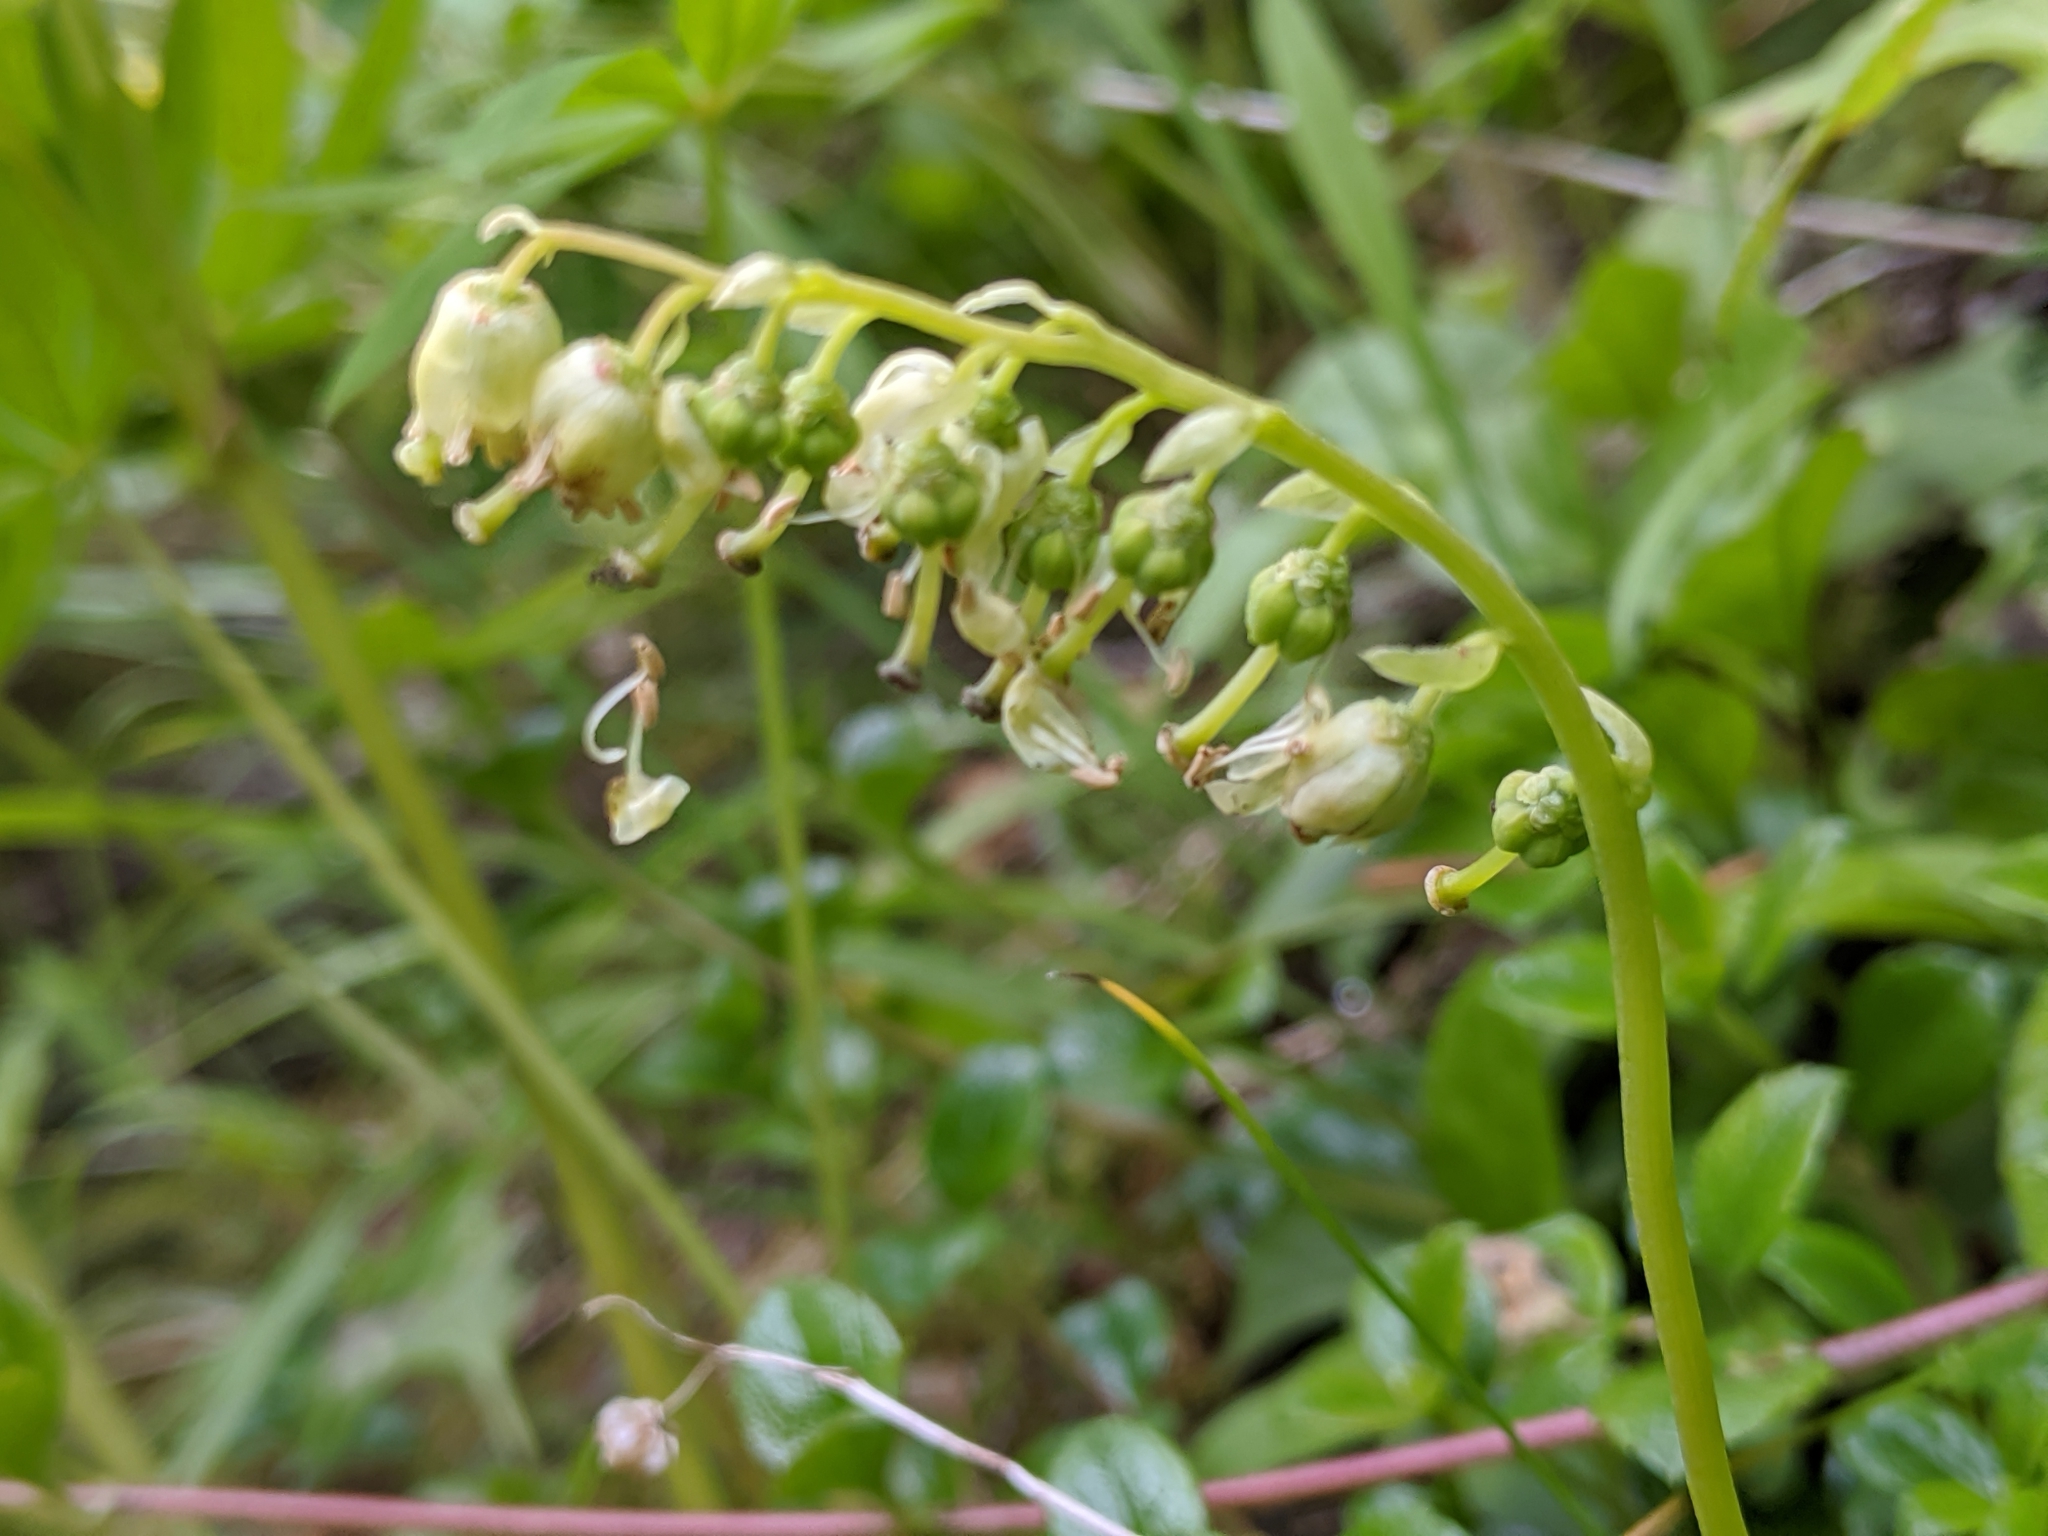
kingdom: Plantae
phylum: Tracheophyta
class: Magnoliopsida
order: Ericales
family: Ericaceae
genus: Orthilia
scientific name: Orthilia secunda
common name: One-sided orthilia
